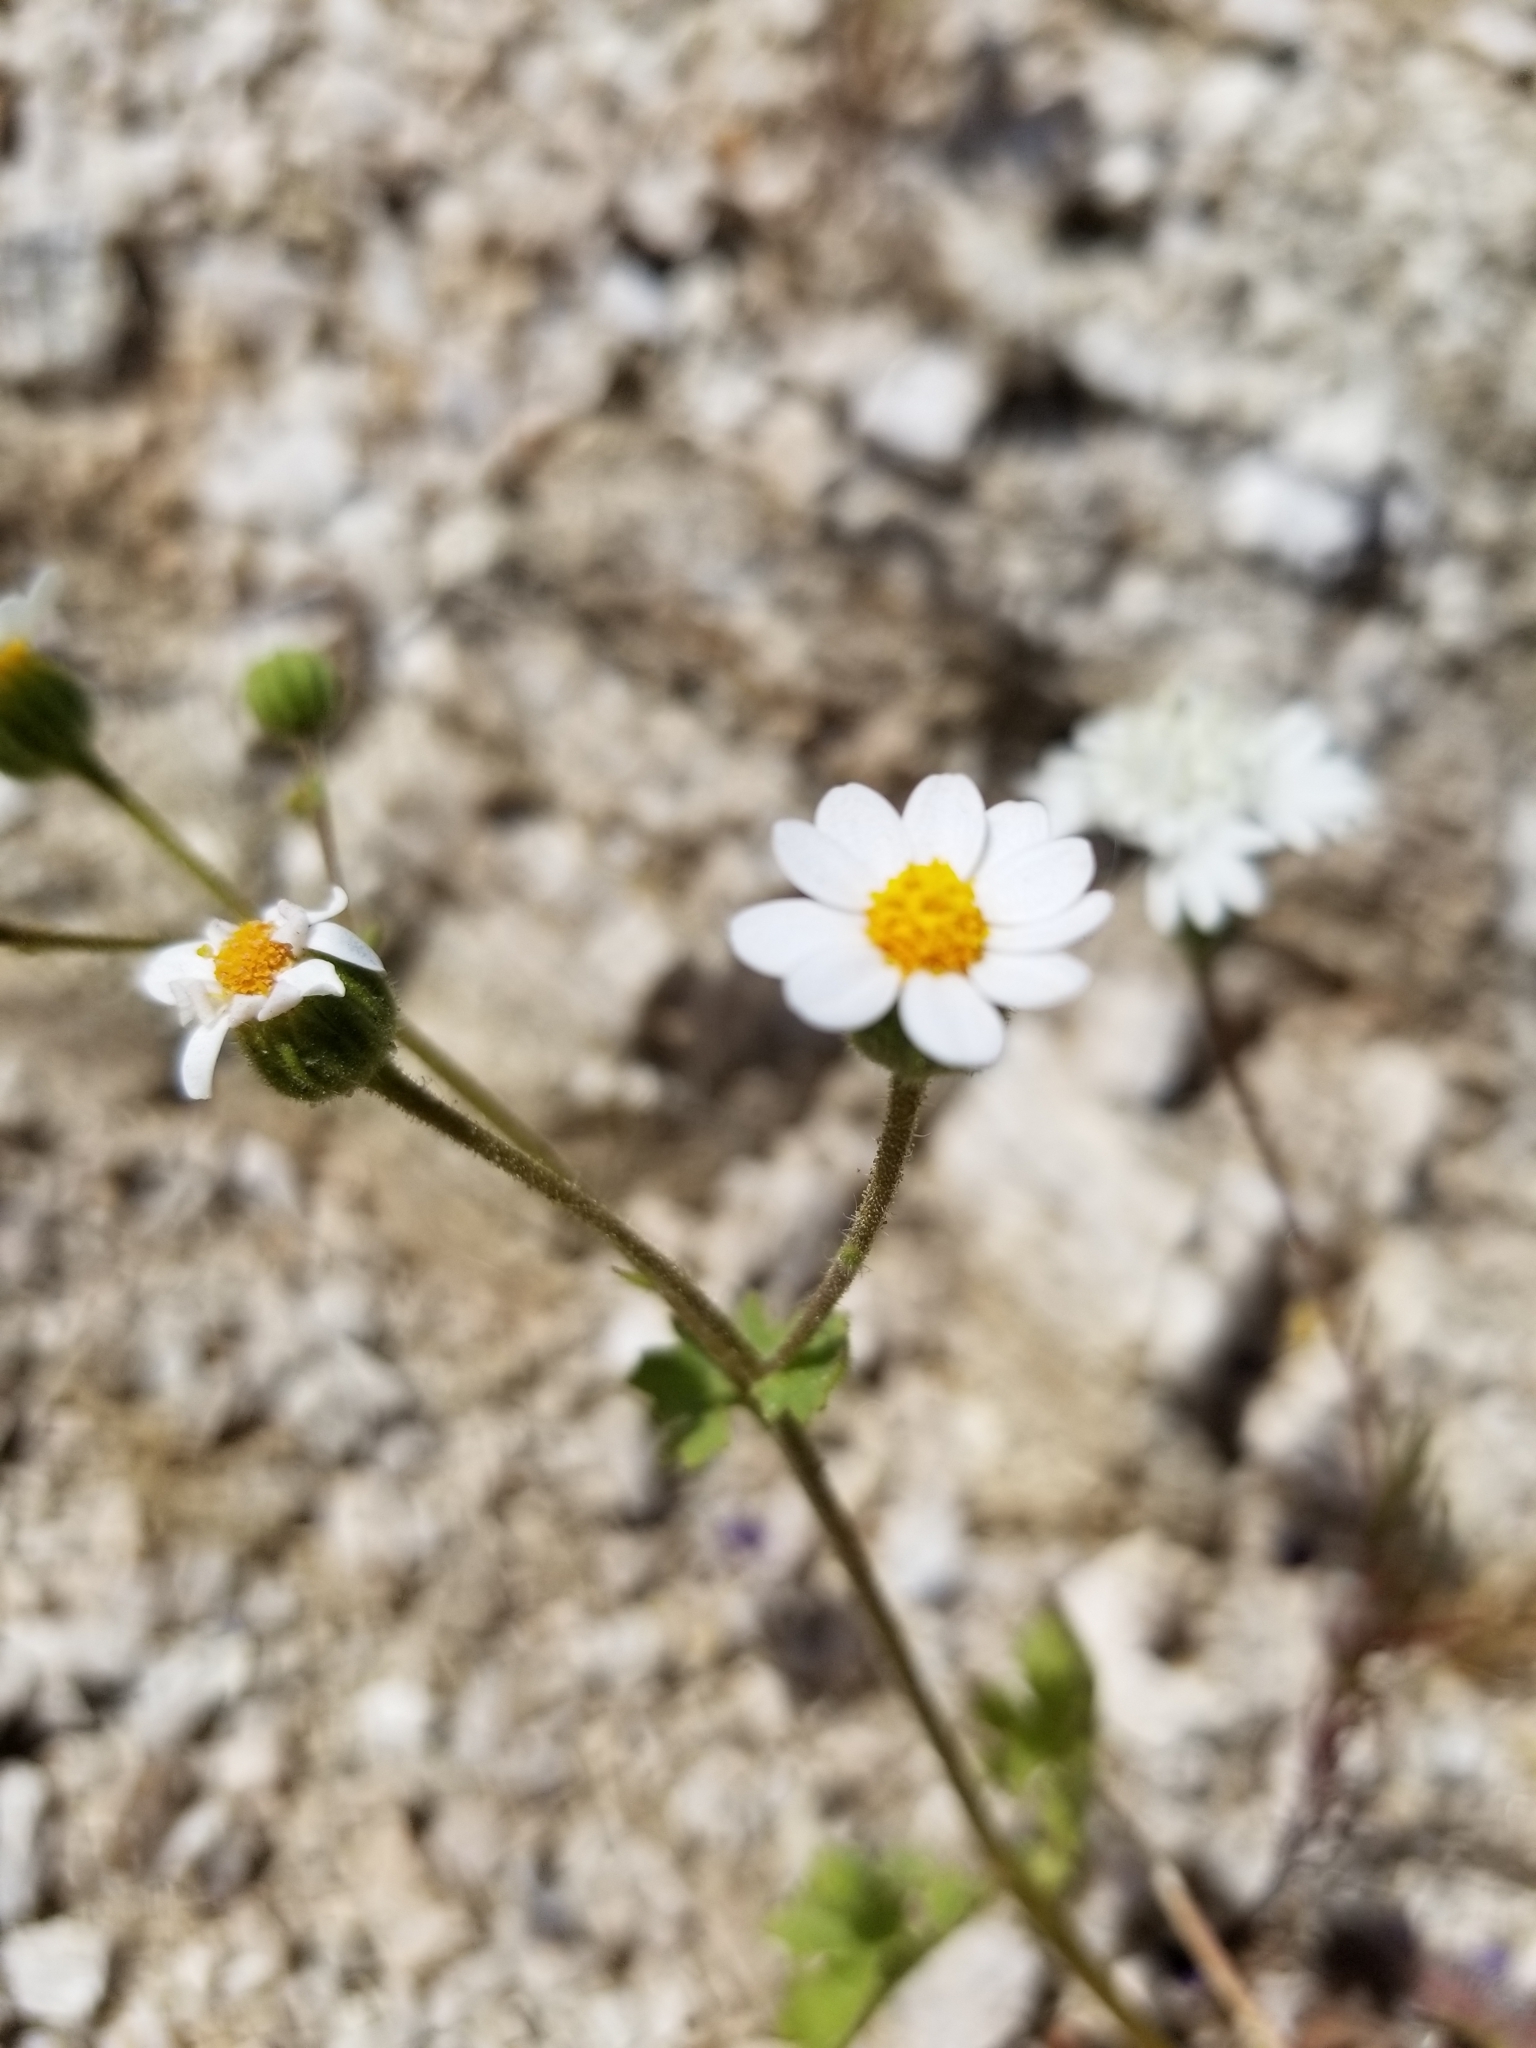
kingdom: Plantae
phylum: Tracheophyta
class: Magnoliopsida
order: Asterales
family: Asteraceae
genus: Laphamia
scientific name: Laphamia emoryi
